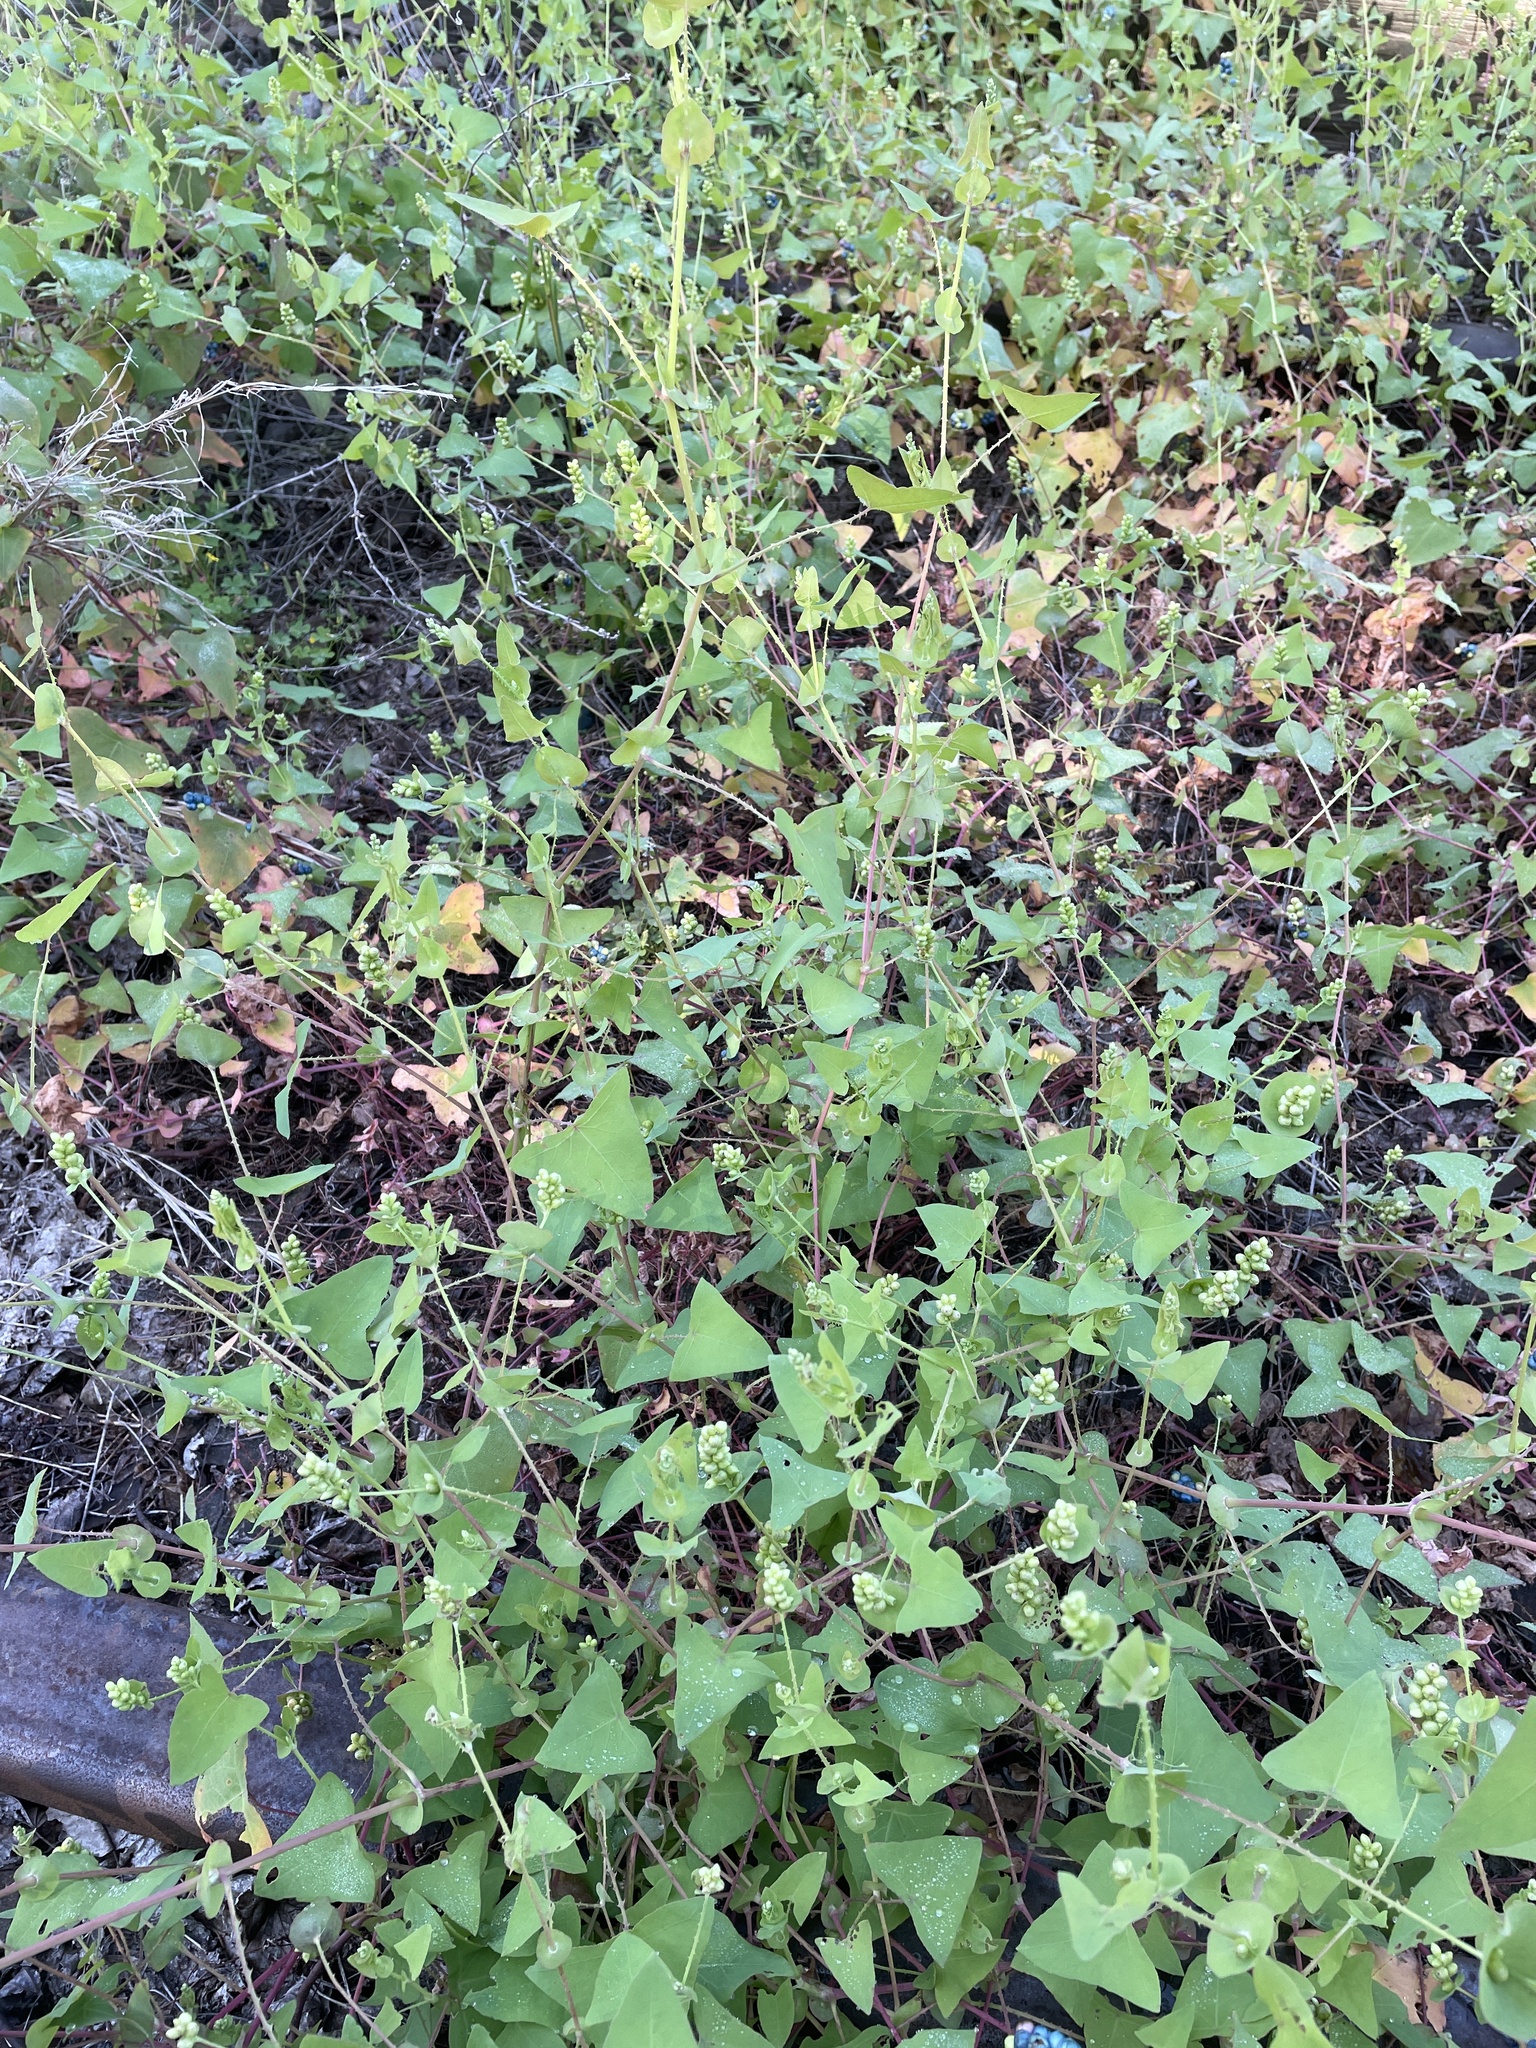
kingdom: Plantae
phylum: Tracheophyta
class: Magnoliopsida
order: Caryophyllales
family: Polygonaceae
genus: Persicaria
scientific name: Persicaria perfoliata
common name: Asiatic tearthumb
